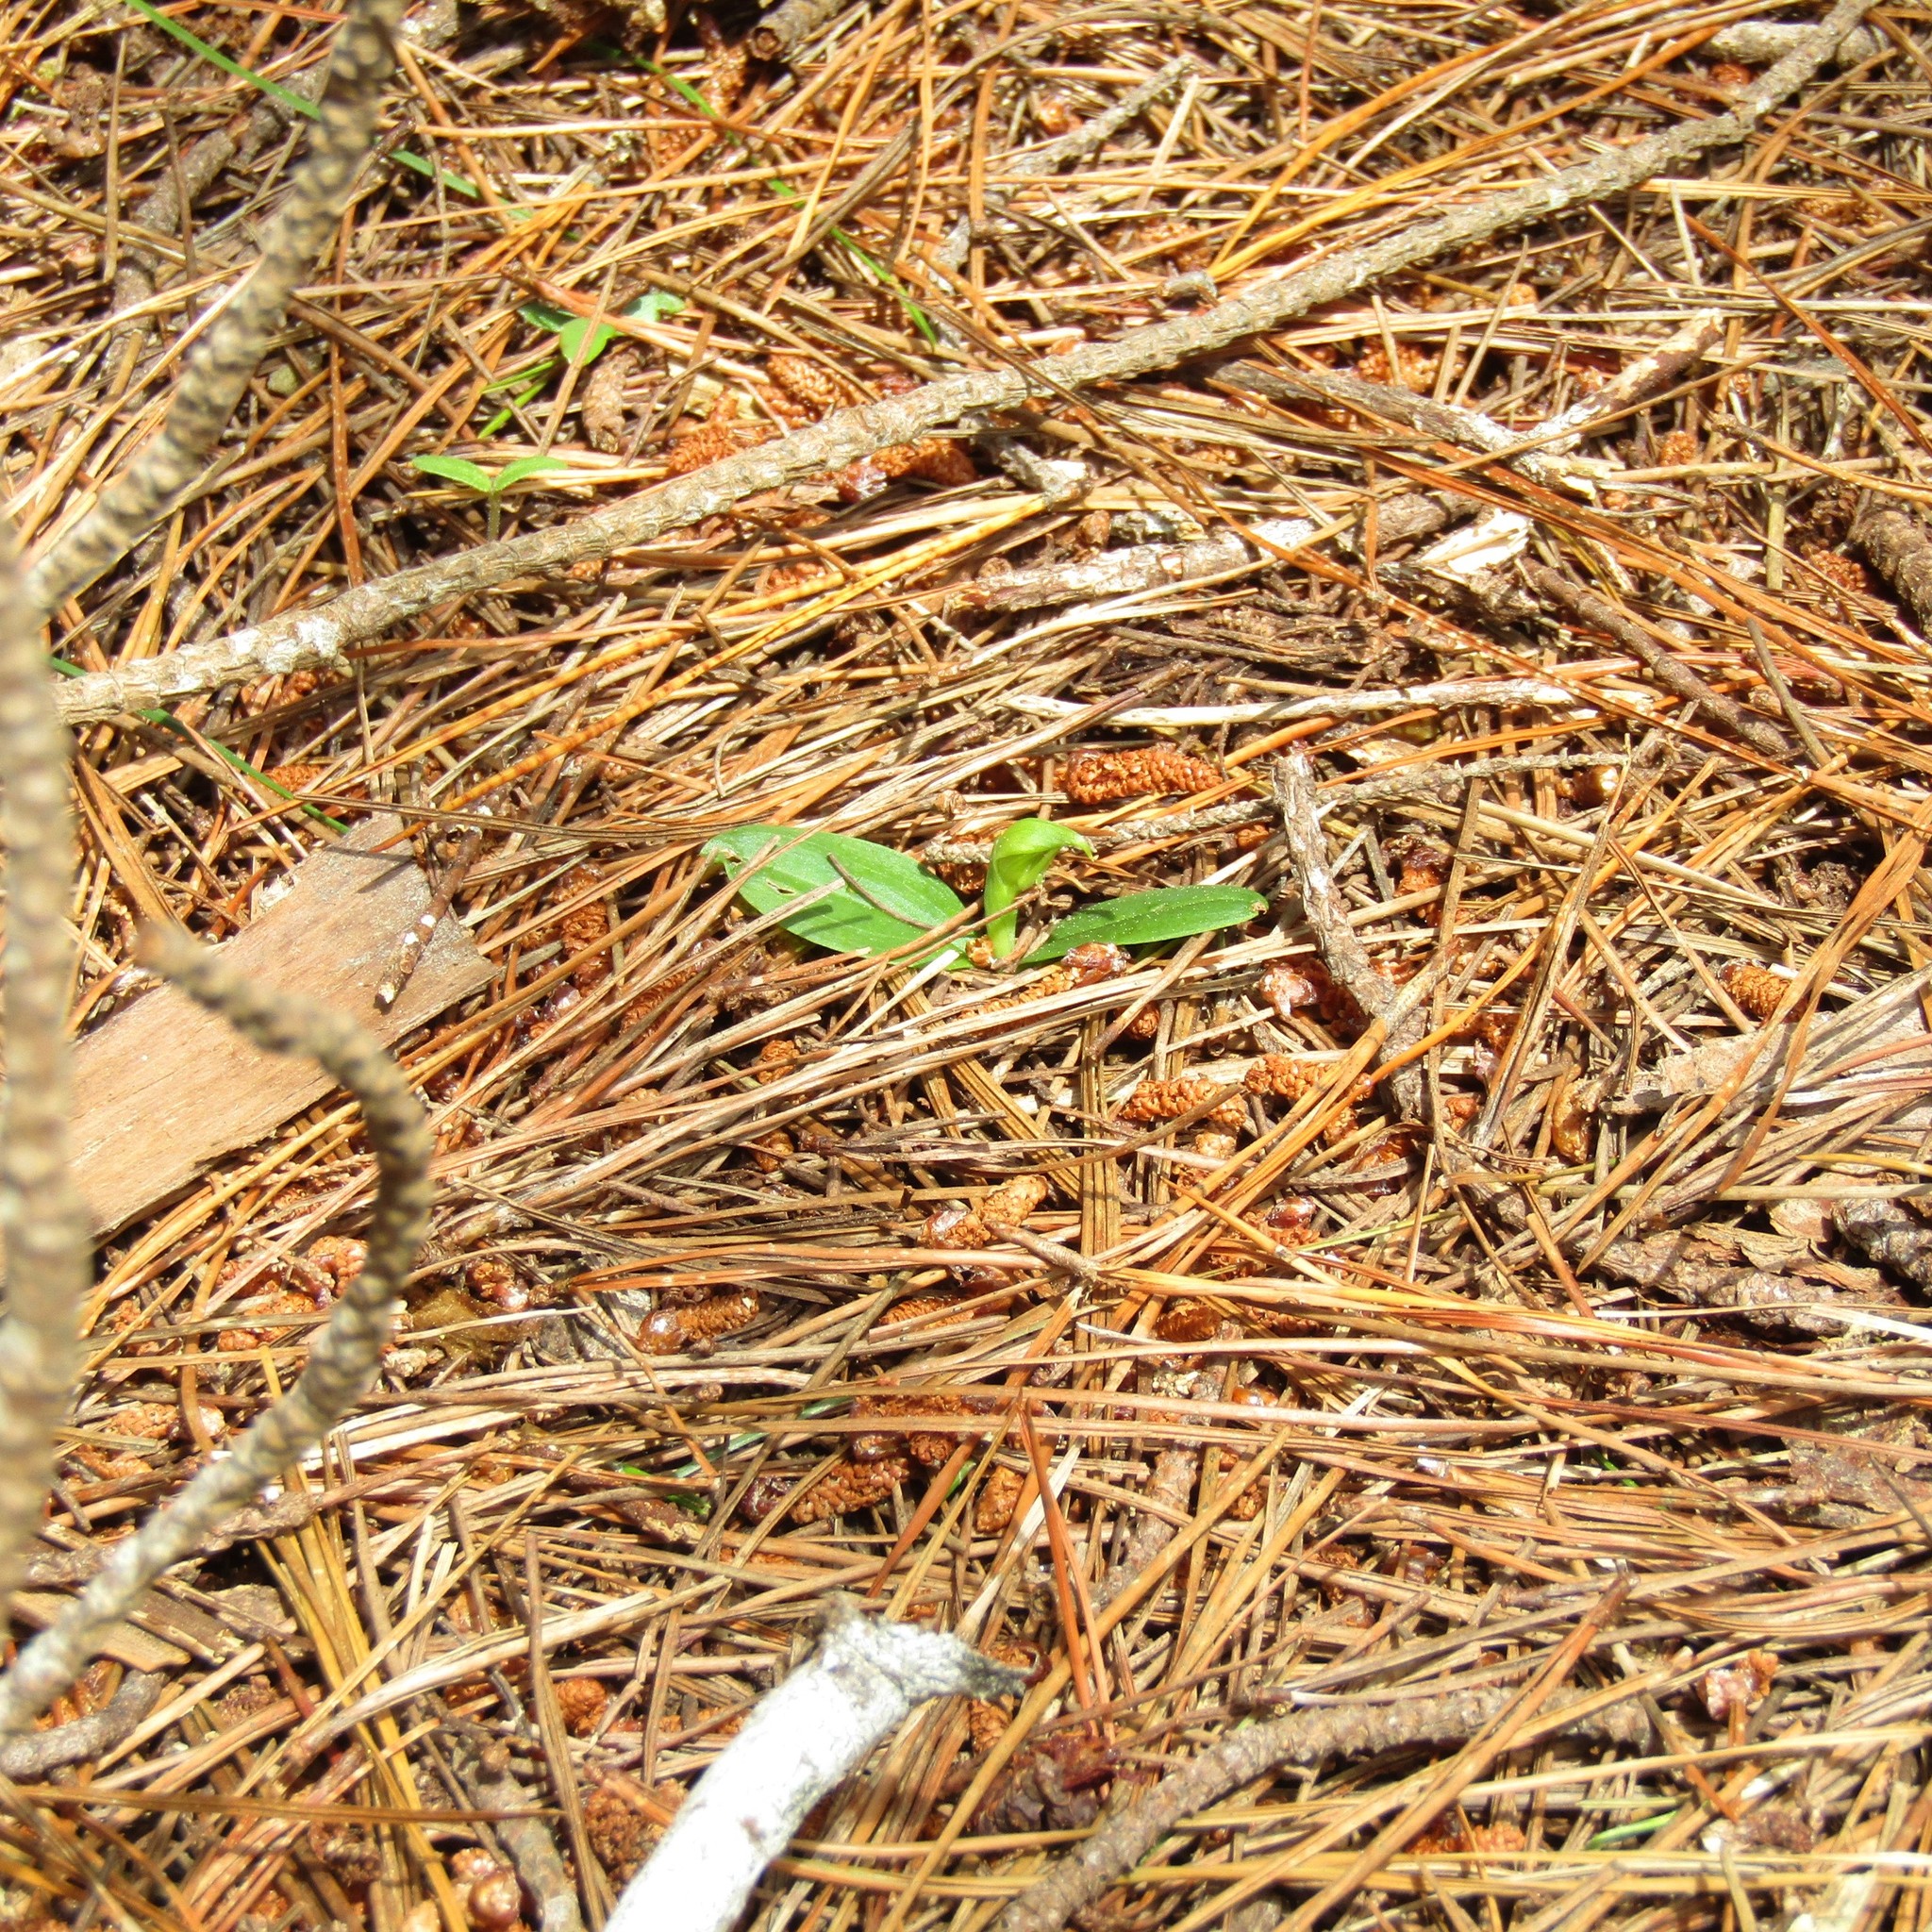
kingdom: Plantae
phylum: Tracheophyta
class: Liliopsida
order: Asparagales
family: Orchidaceae
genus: Chiloglottis
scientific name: Chiloglottis cornuta
